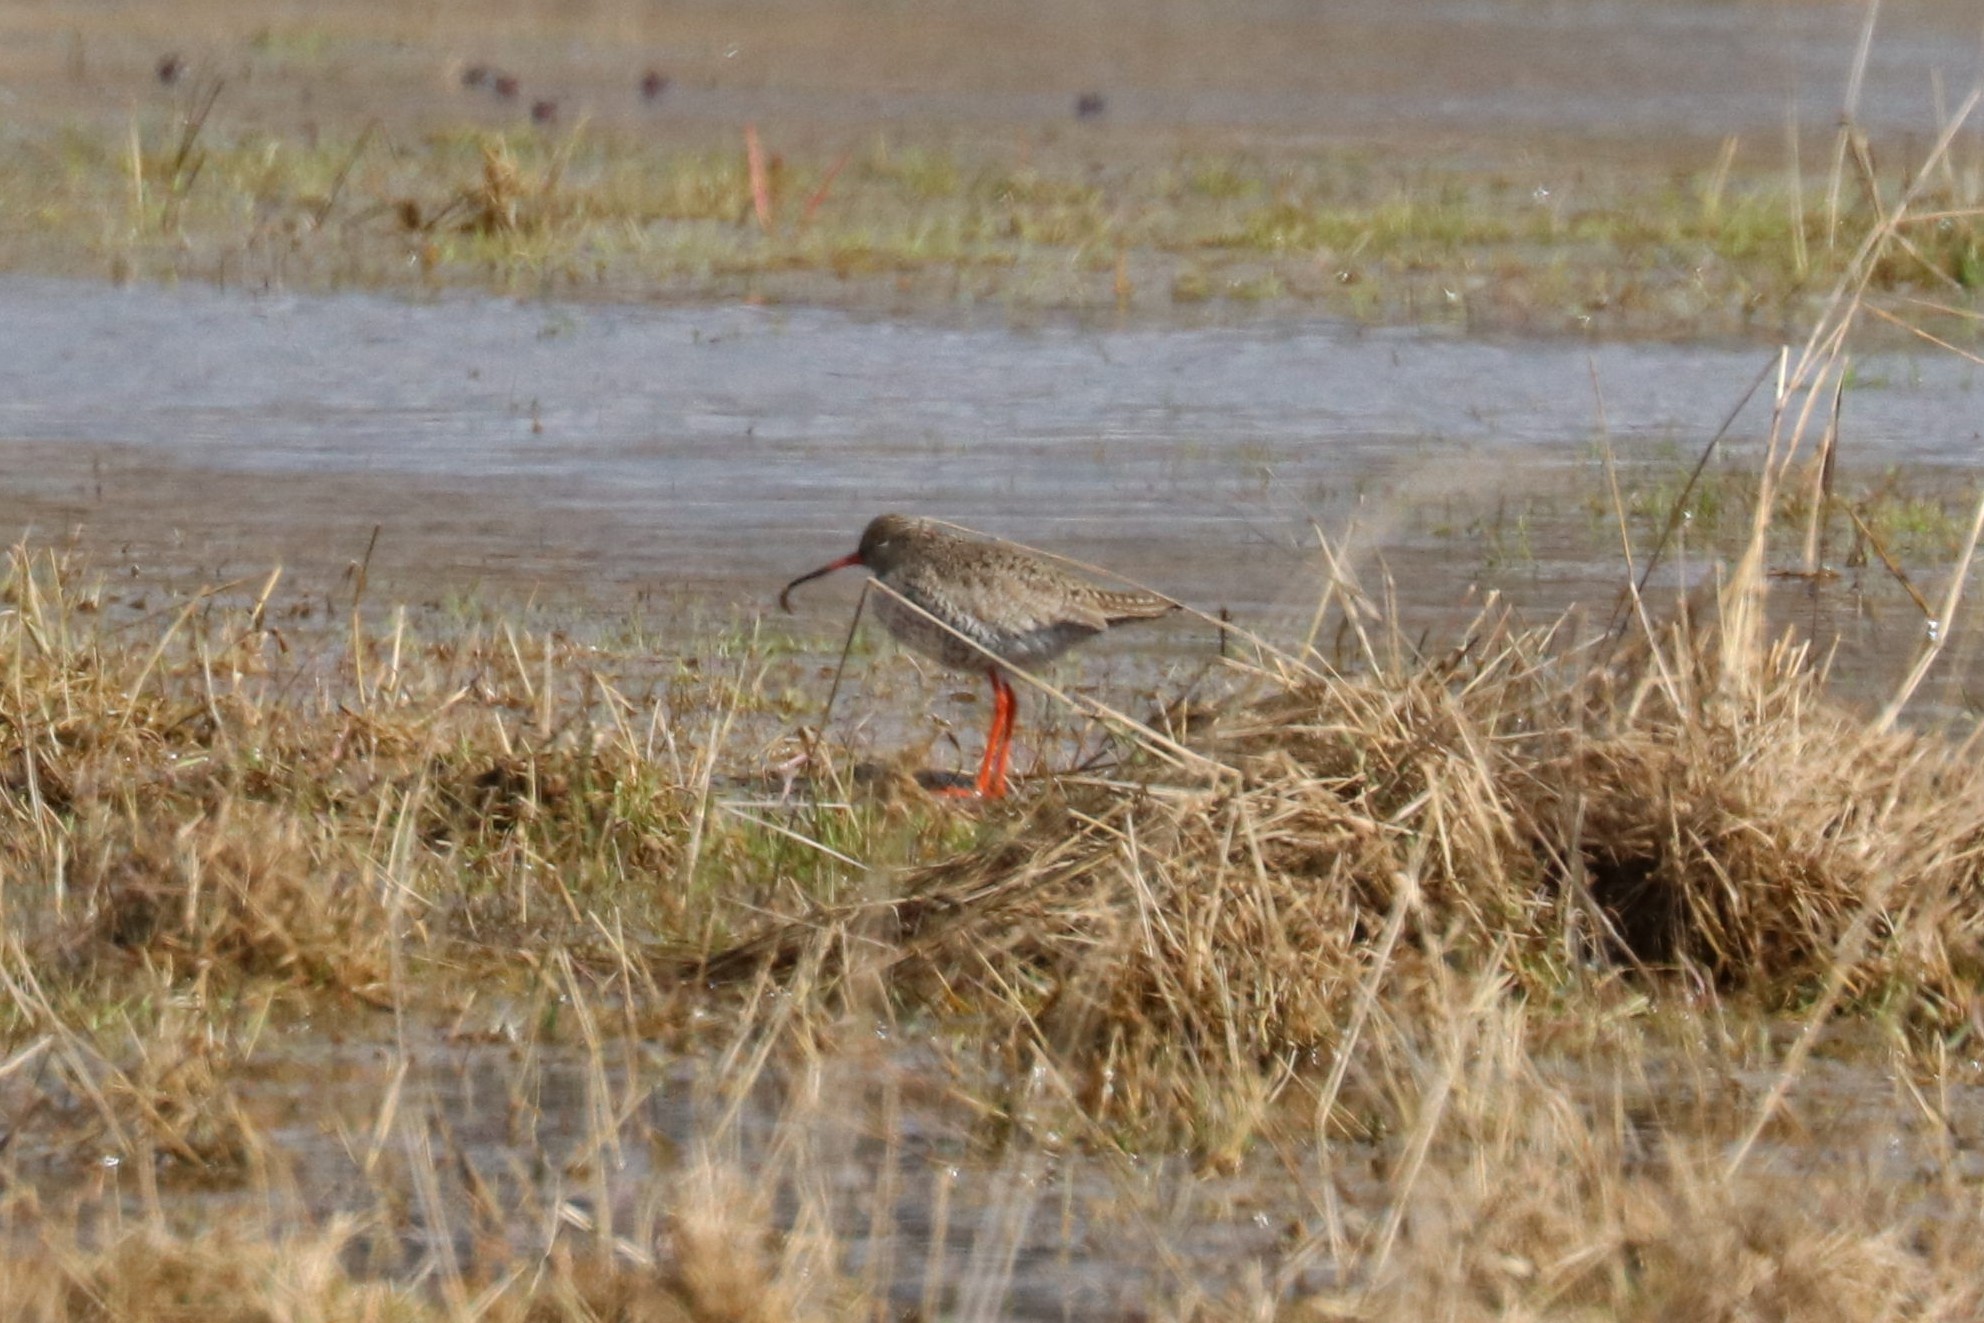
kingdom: Animalia
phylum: Chordata
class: Aves
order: Charadriiformes
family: Scolopacidae
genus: Tringa
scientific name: Tringa totanus
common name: Common redshank
